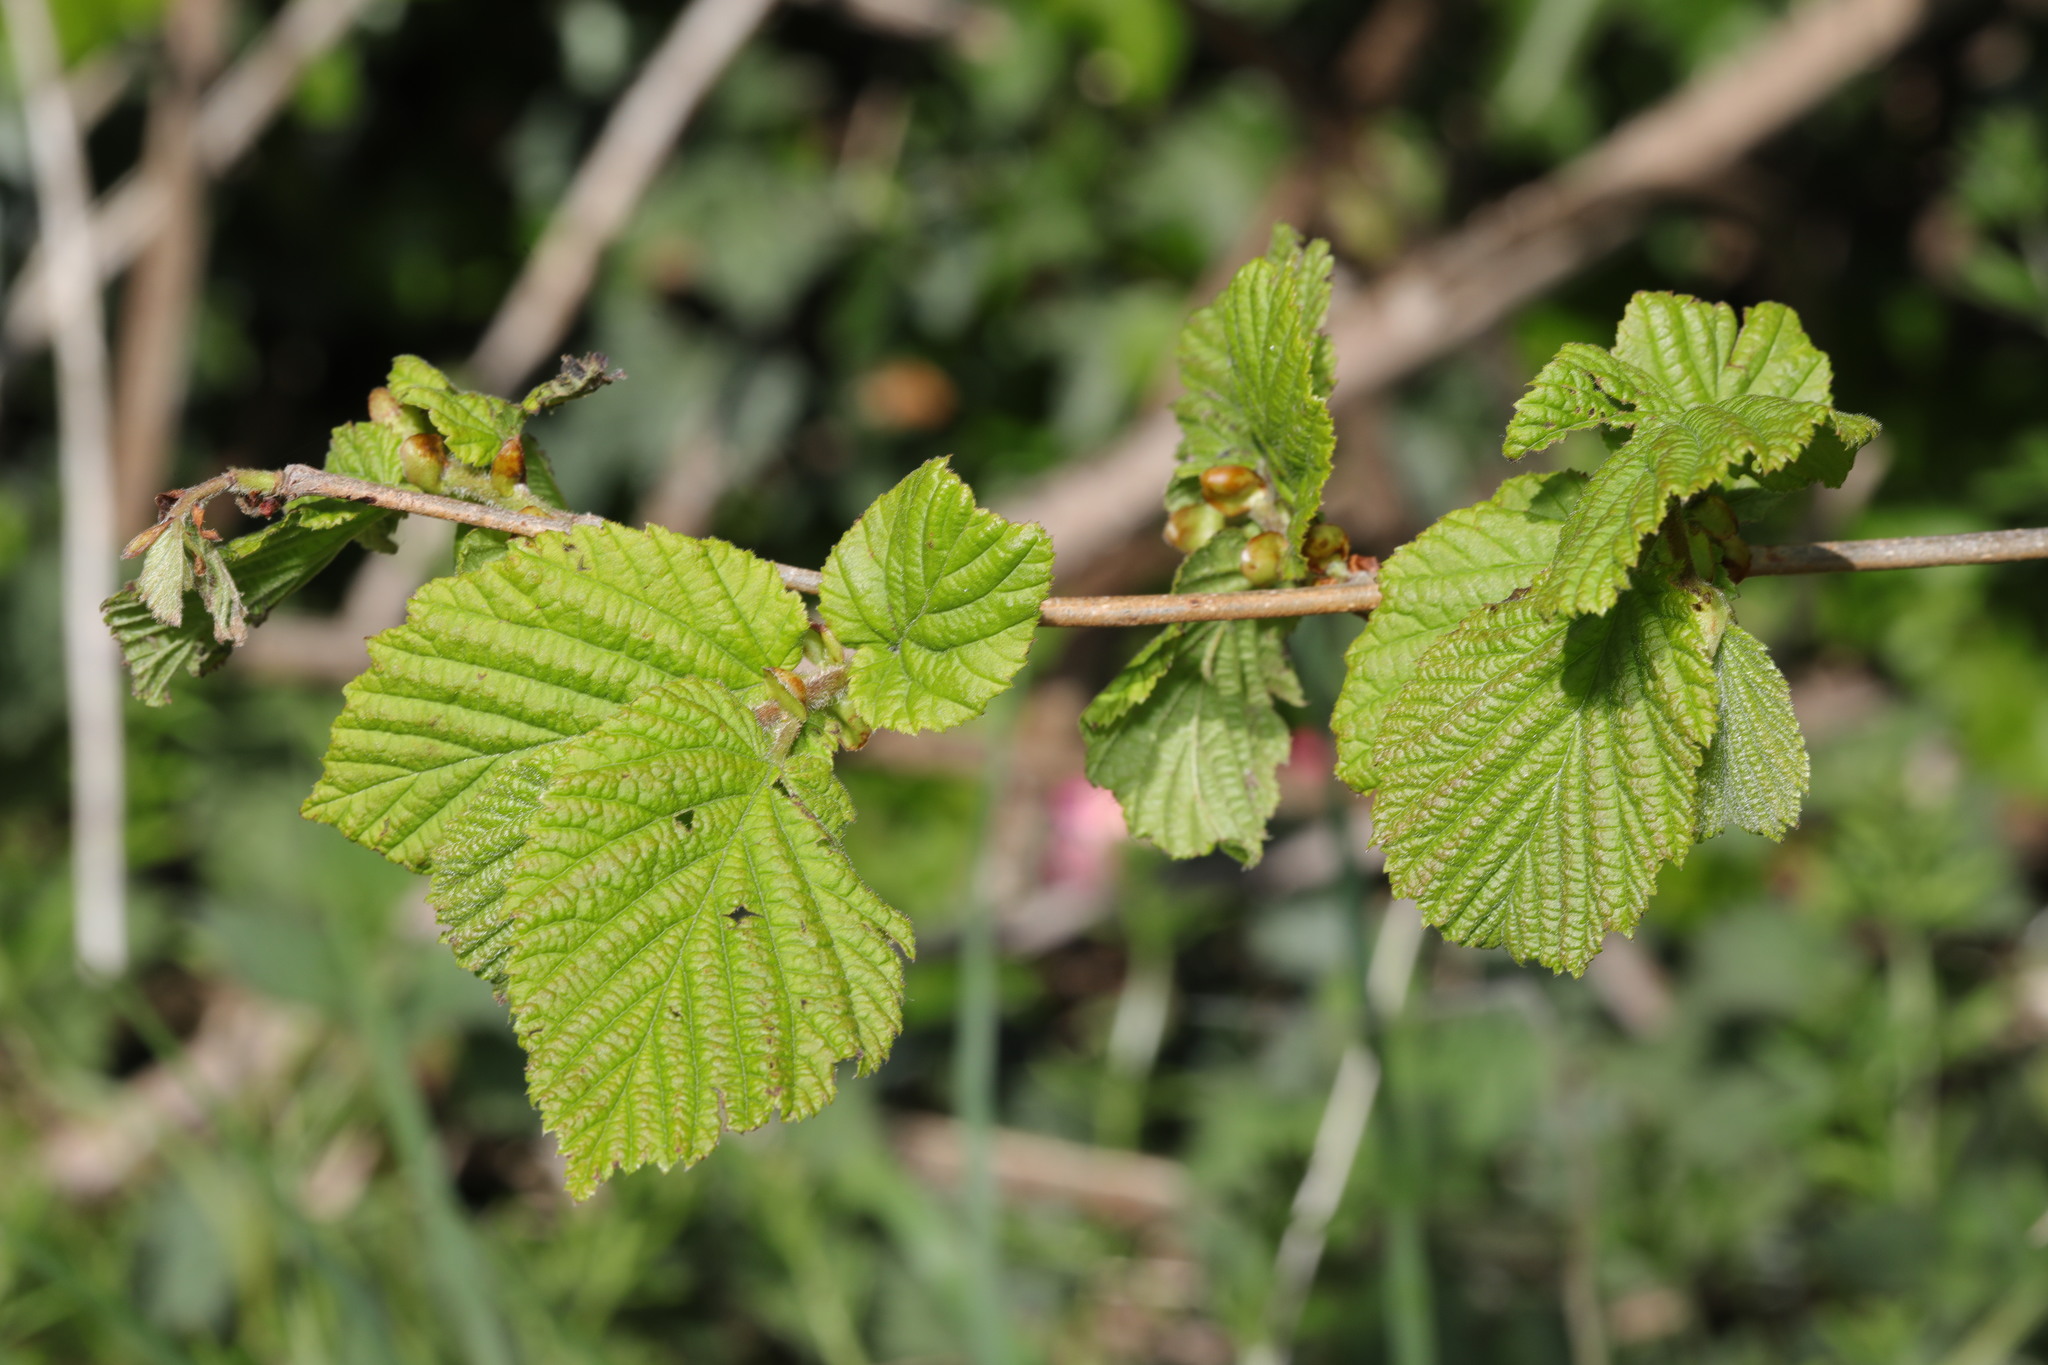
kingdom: Plantae
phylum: Tracheophyta
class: Magnoliopsida
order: Fagales
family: Betulaceae
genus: Corylus
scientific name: Corylus avellana
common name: European hazel
